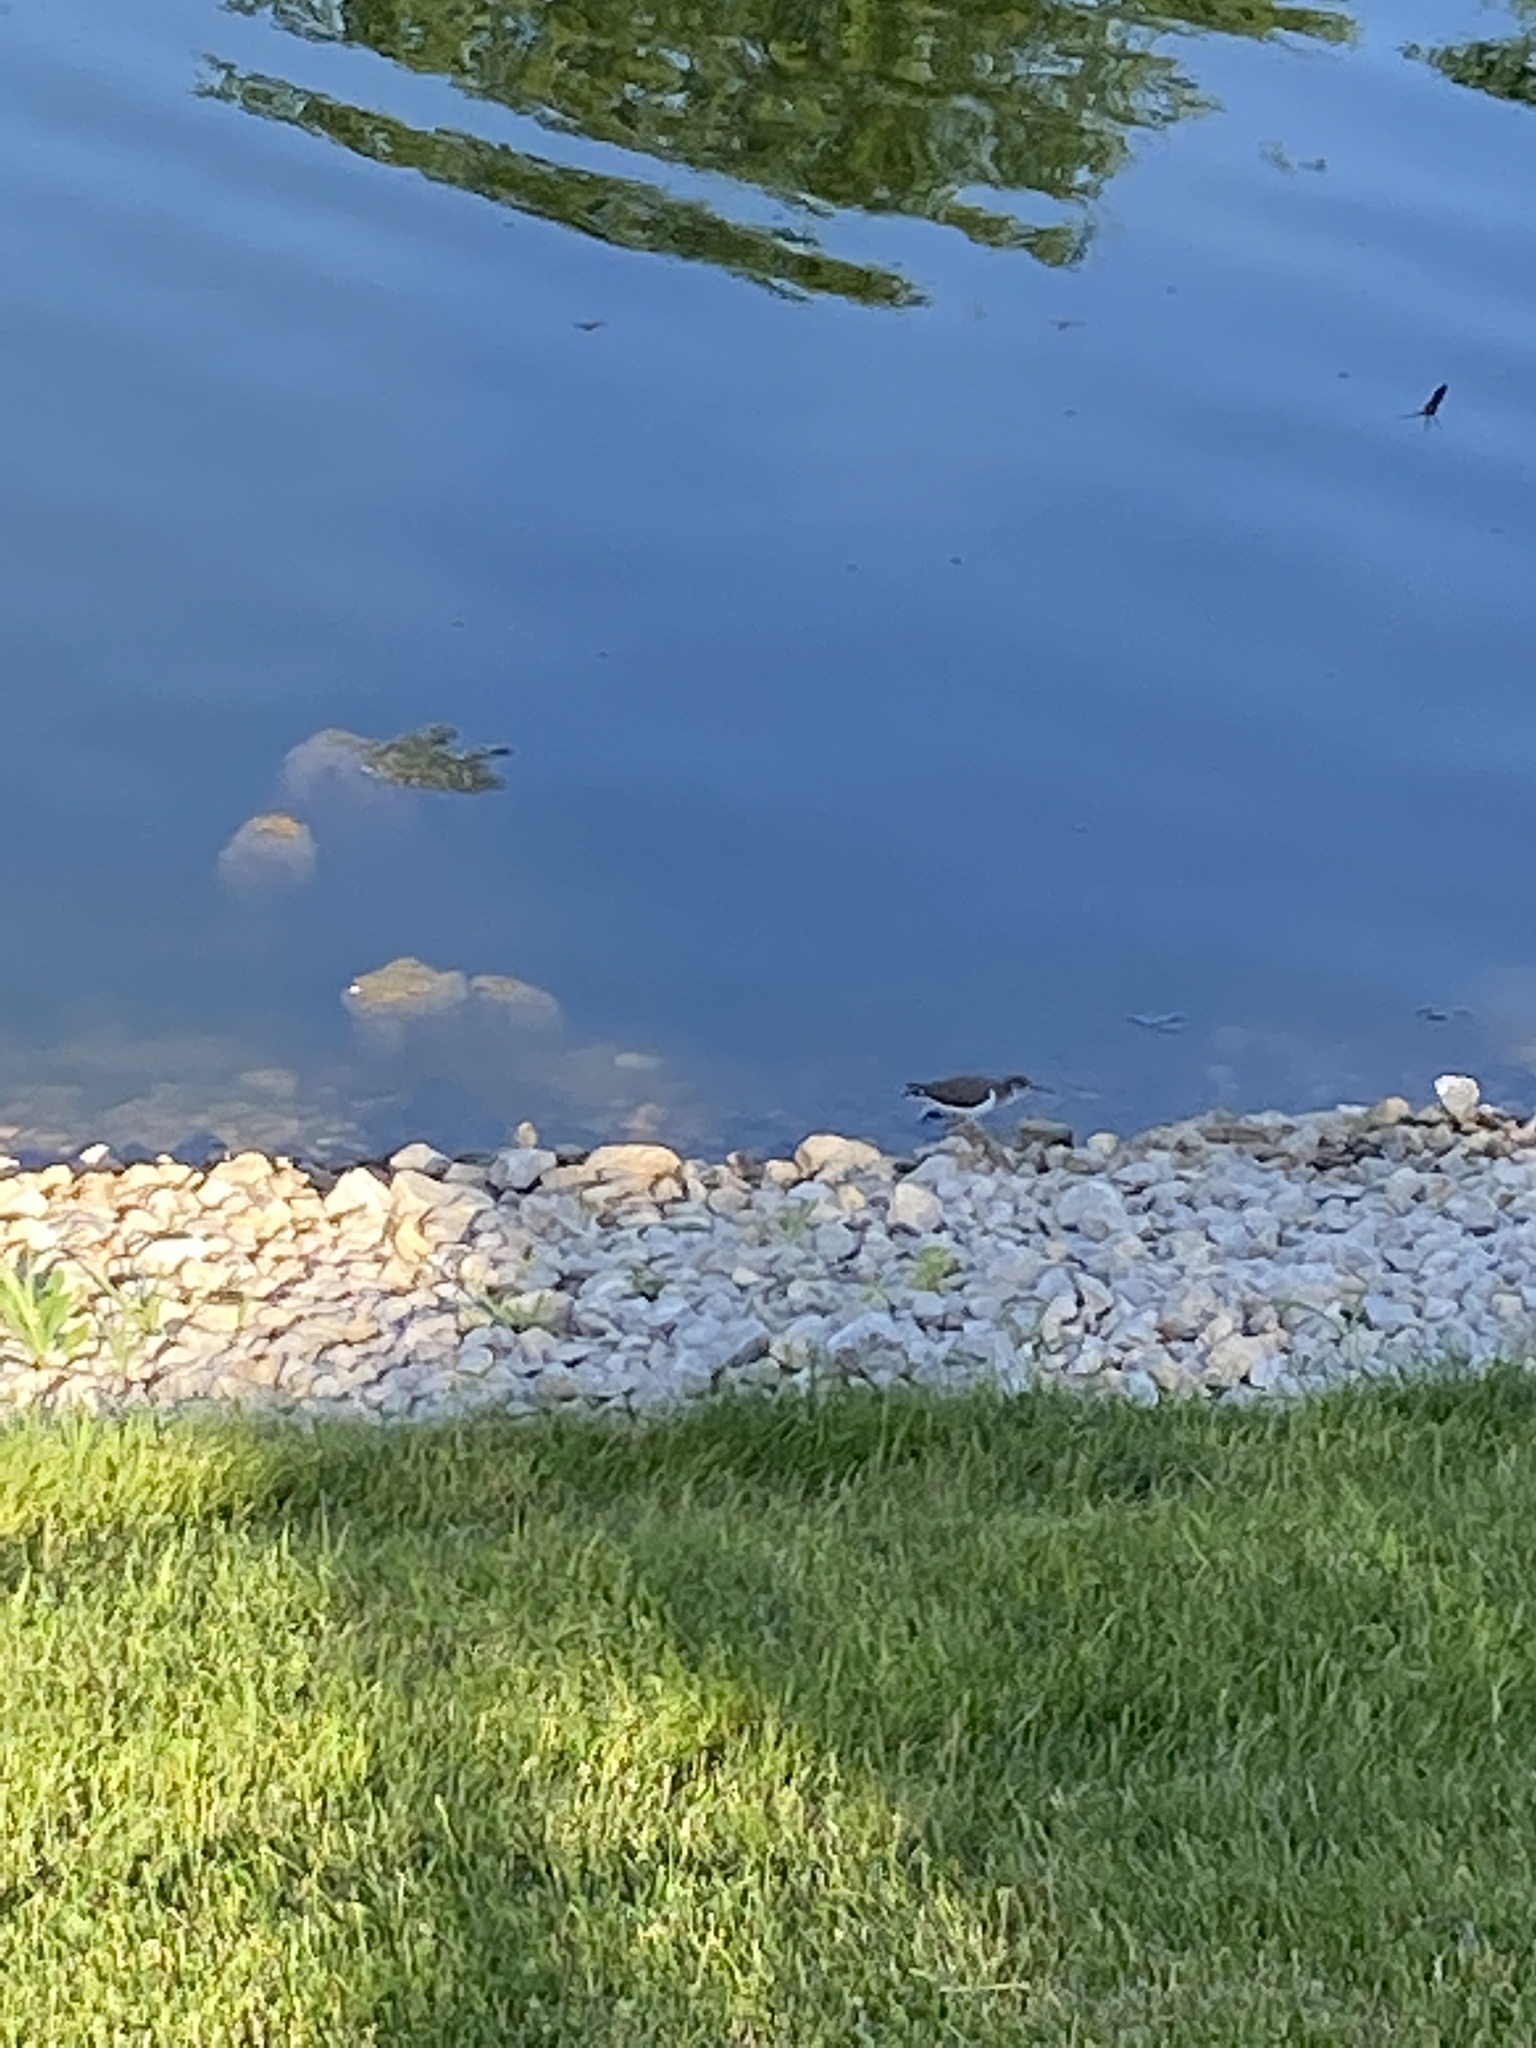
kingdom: Animalia
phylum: Chordata
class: Aves
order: Charadriiformes
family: Scolopacidae
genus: Actitis
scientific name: Actitis macularius
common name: Spotted sandpiper
